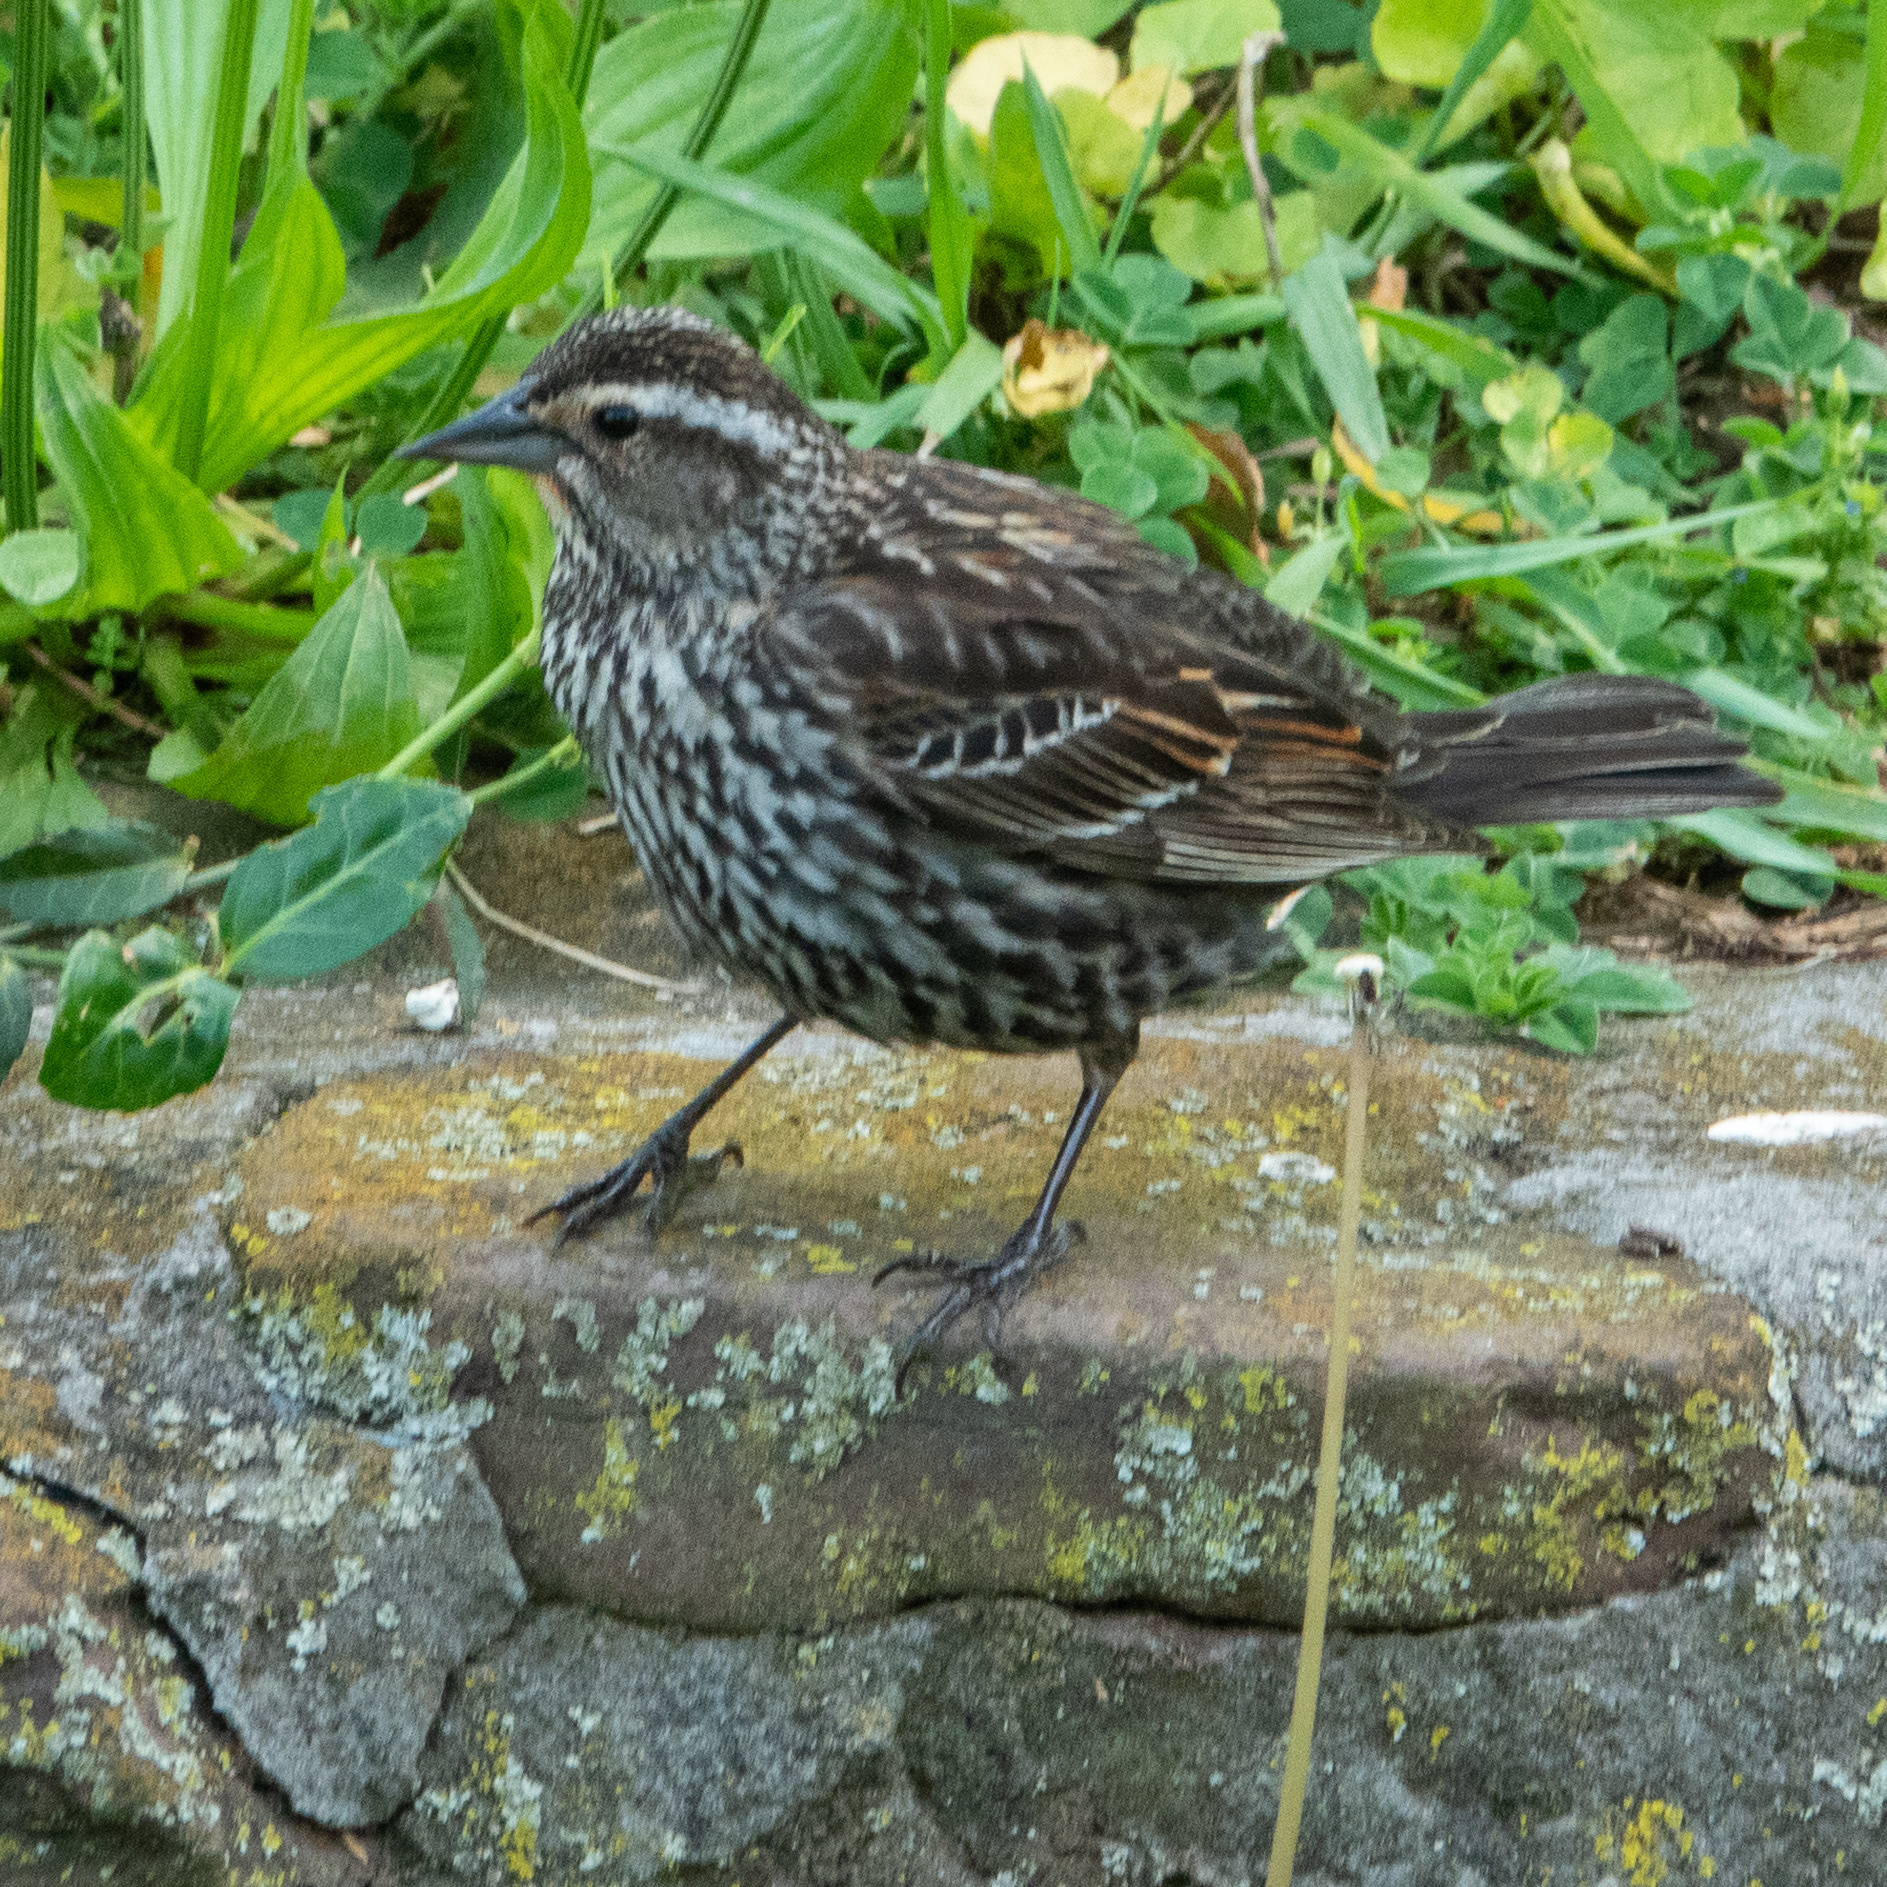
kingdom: Animalia
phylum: Chordata
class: Aves
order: Passeriformes
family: Icteridae
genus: Agelaius
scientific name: Agelaius phoeniceus
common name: Red-winged blackbird
